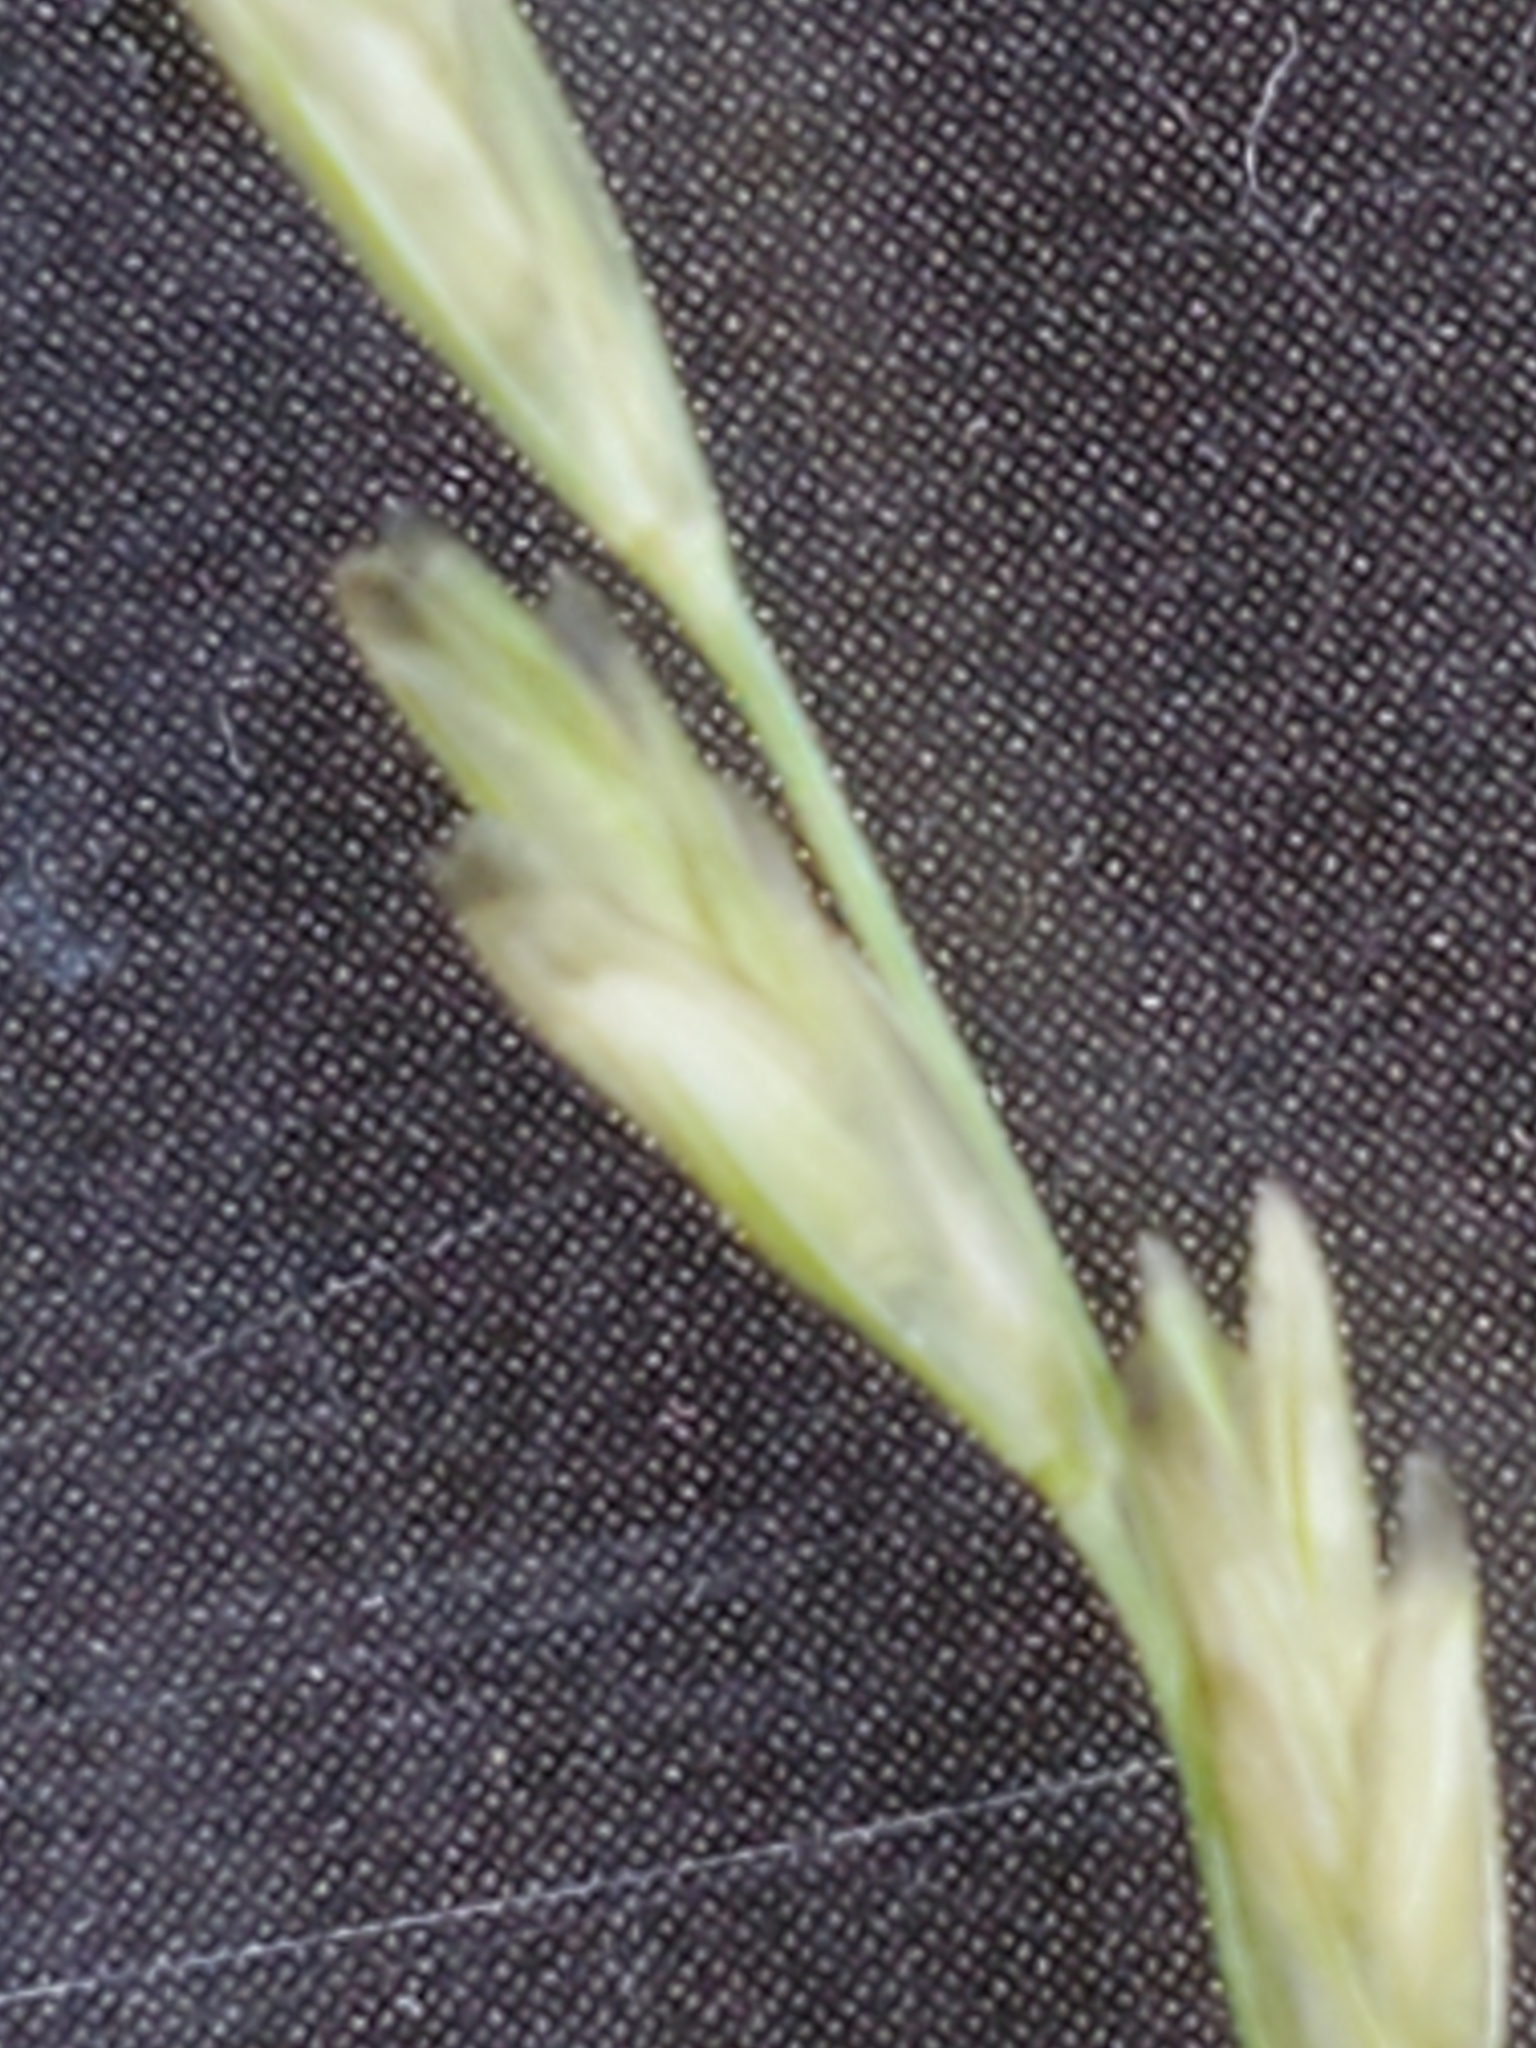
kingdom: Plantae
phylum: Tracheophyta
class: Liliopsida
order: Poales
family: Poaceae
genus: Disakisperma
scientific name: Disakisperma dubium
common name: Green sprangletop
